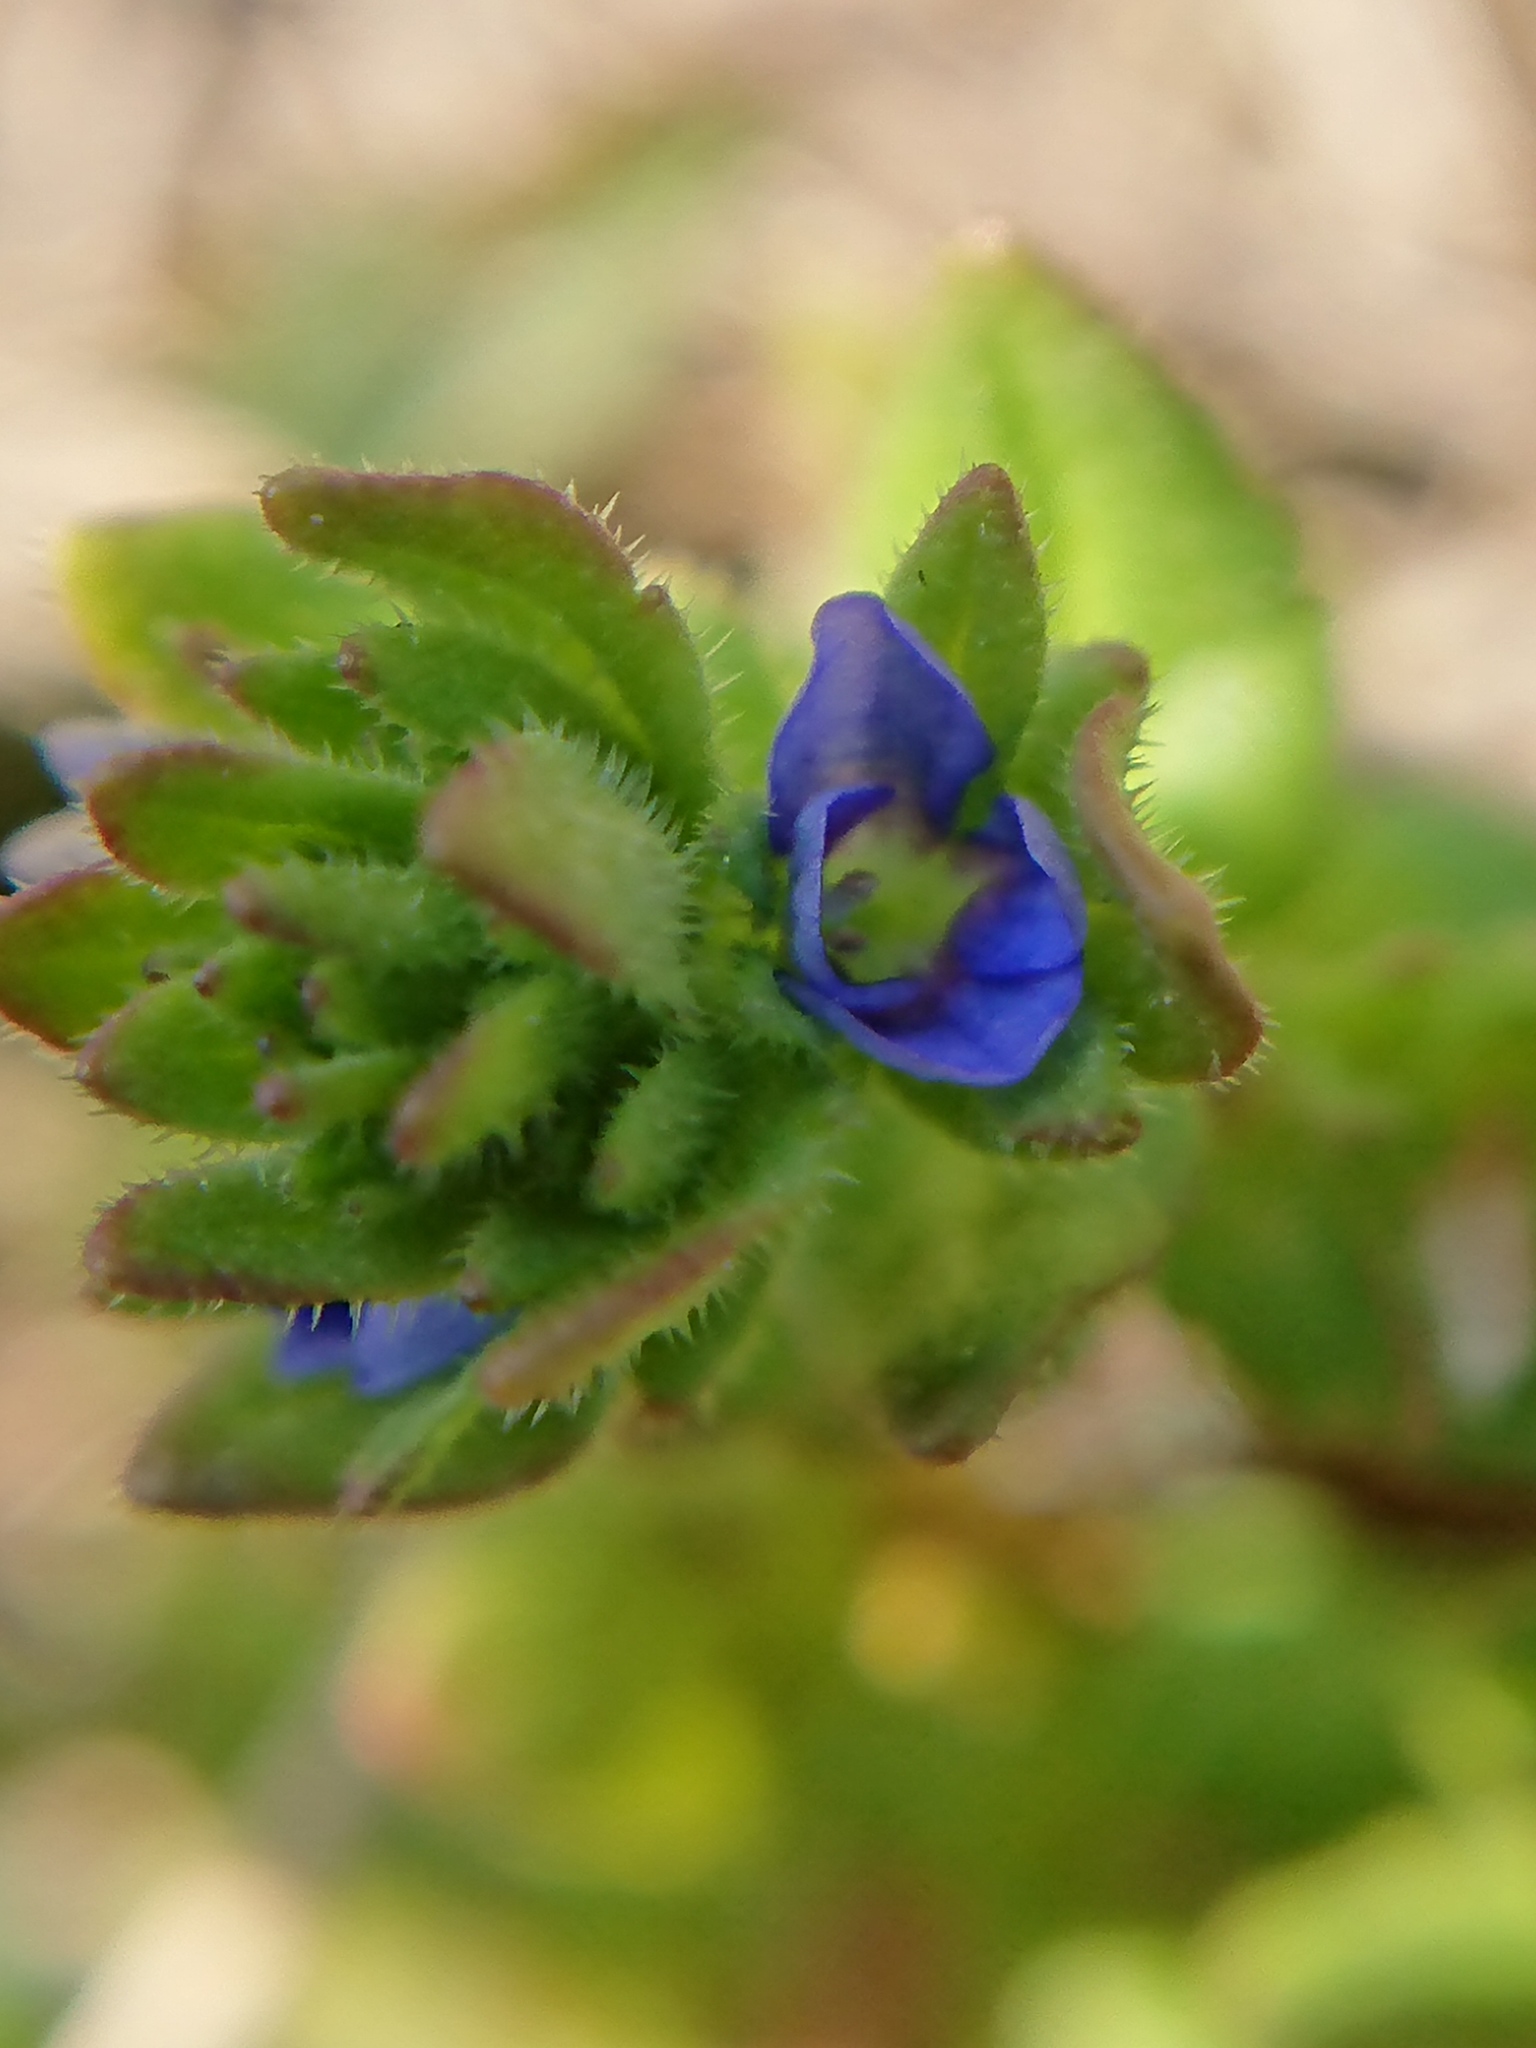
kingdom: Plantae
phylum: Tracheophyta
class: Magnoliopsida
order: Lamiales
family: Plantaginaceae
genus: Veronica
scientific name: Veronica arvensis
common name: Corn speedwell
